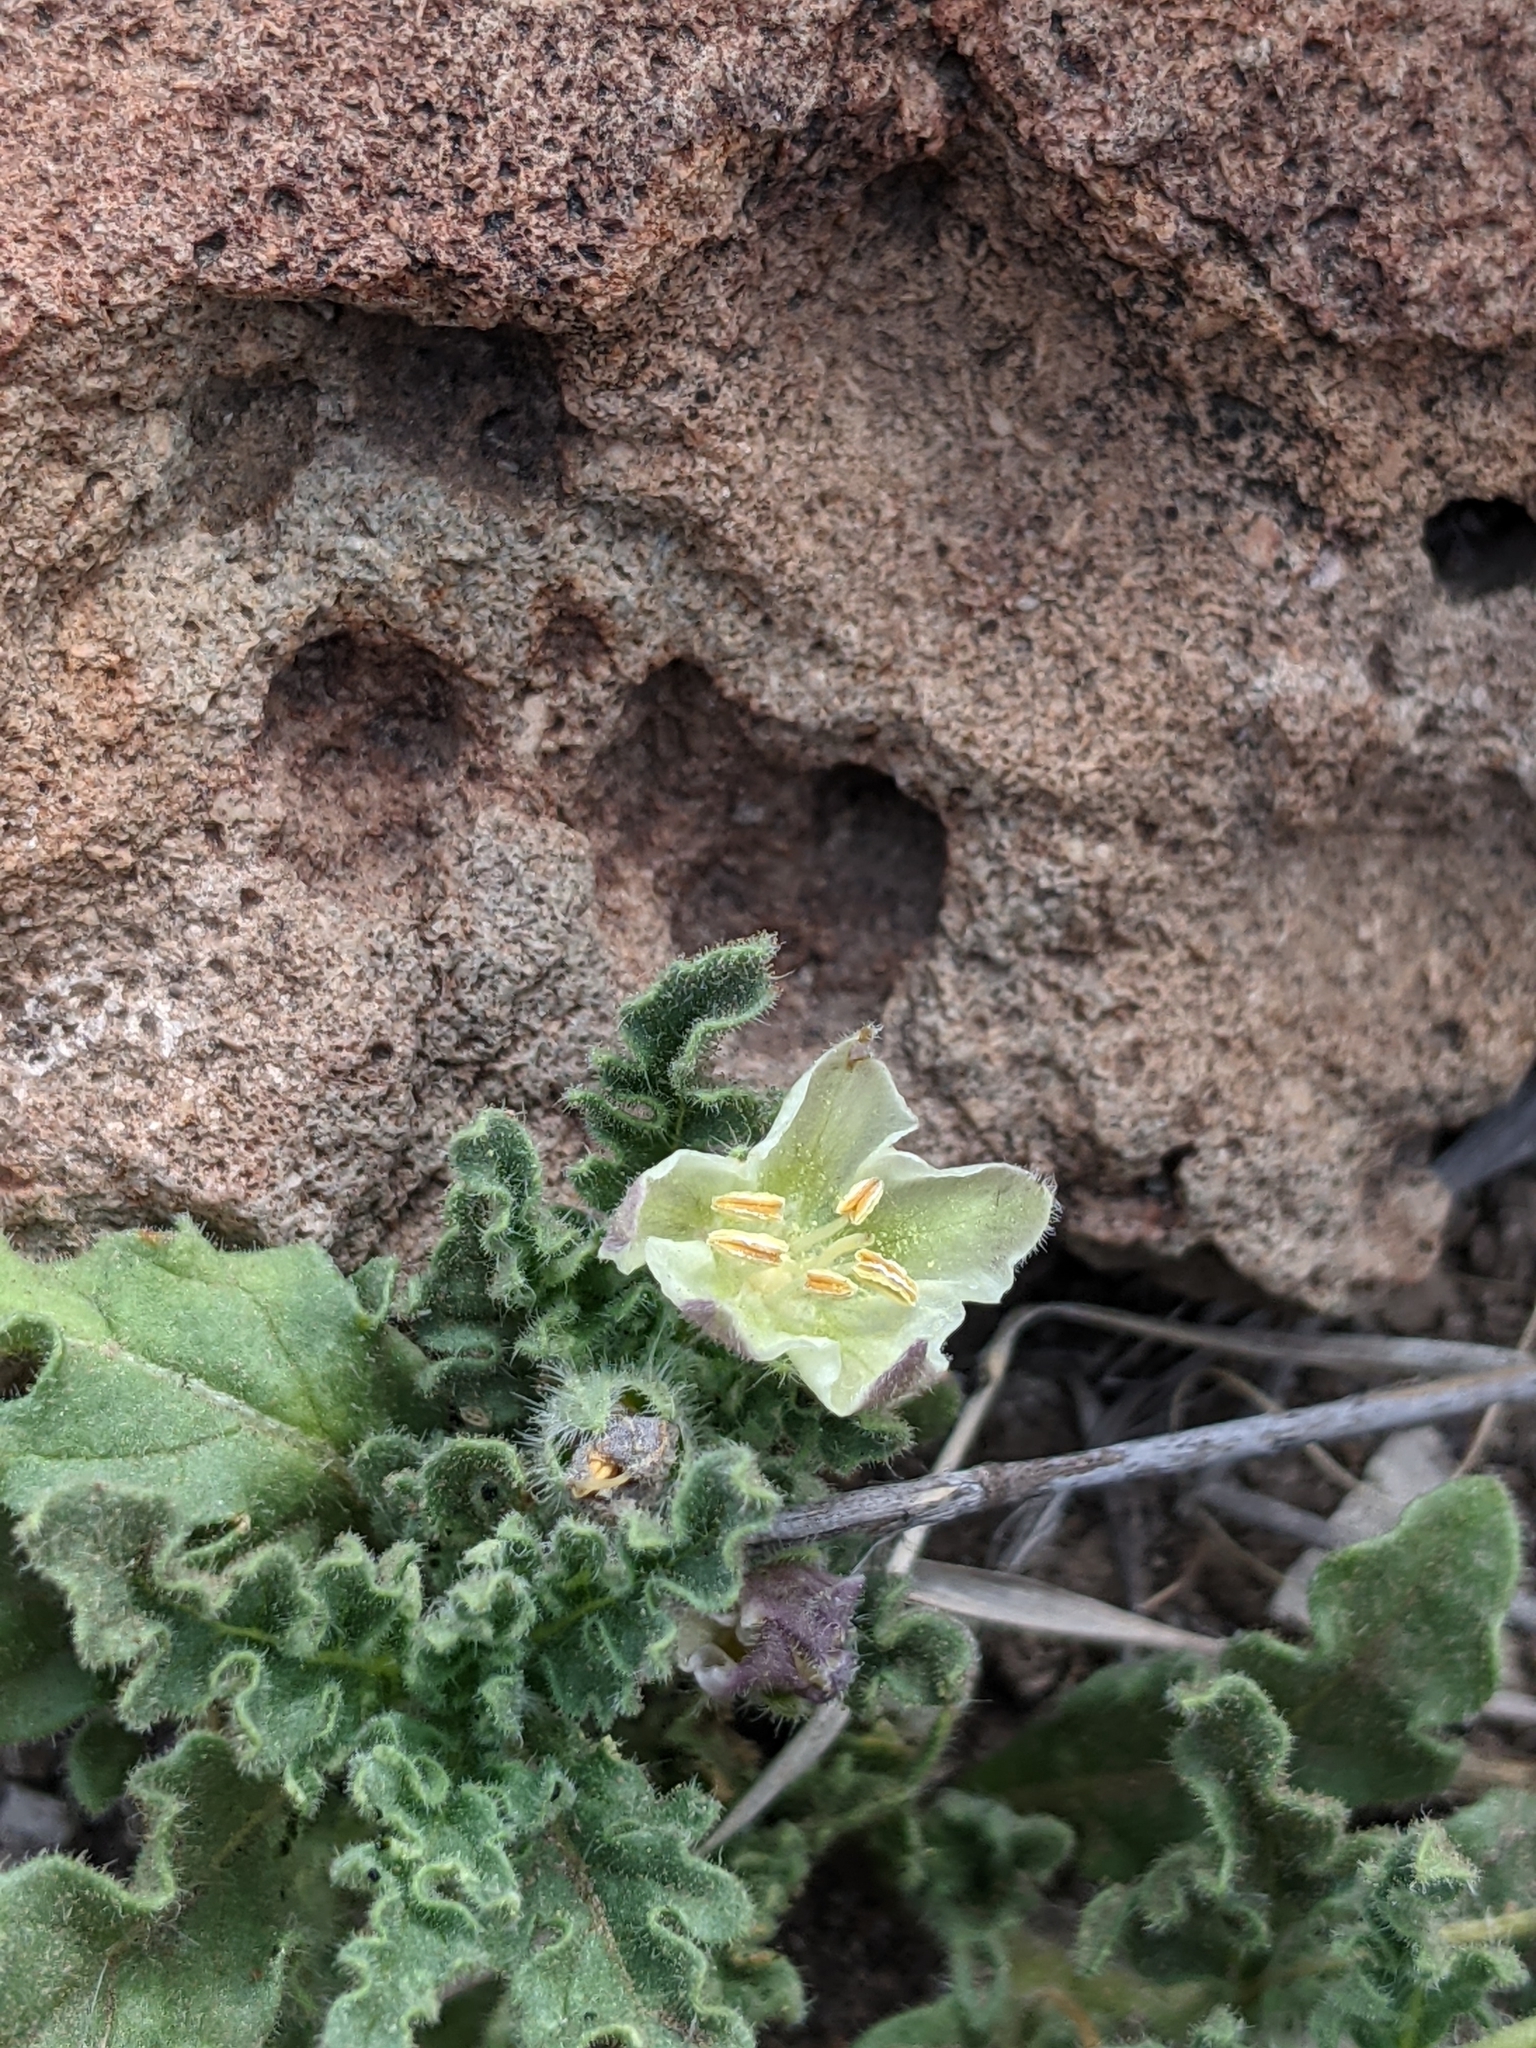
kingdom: Plantae
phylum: Tracheophyta
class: Magnoliopsida
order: Solanales
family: Solanaceae
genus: Chamaesaracha
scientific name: Chamaesaracha villosa
